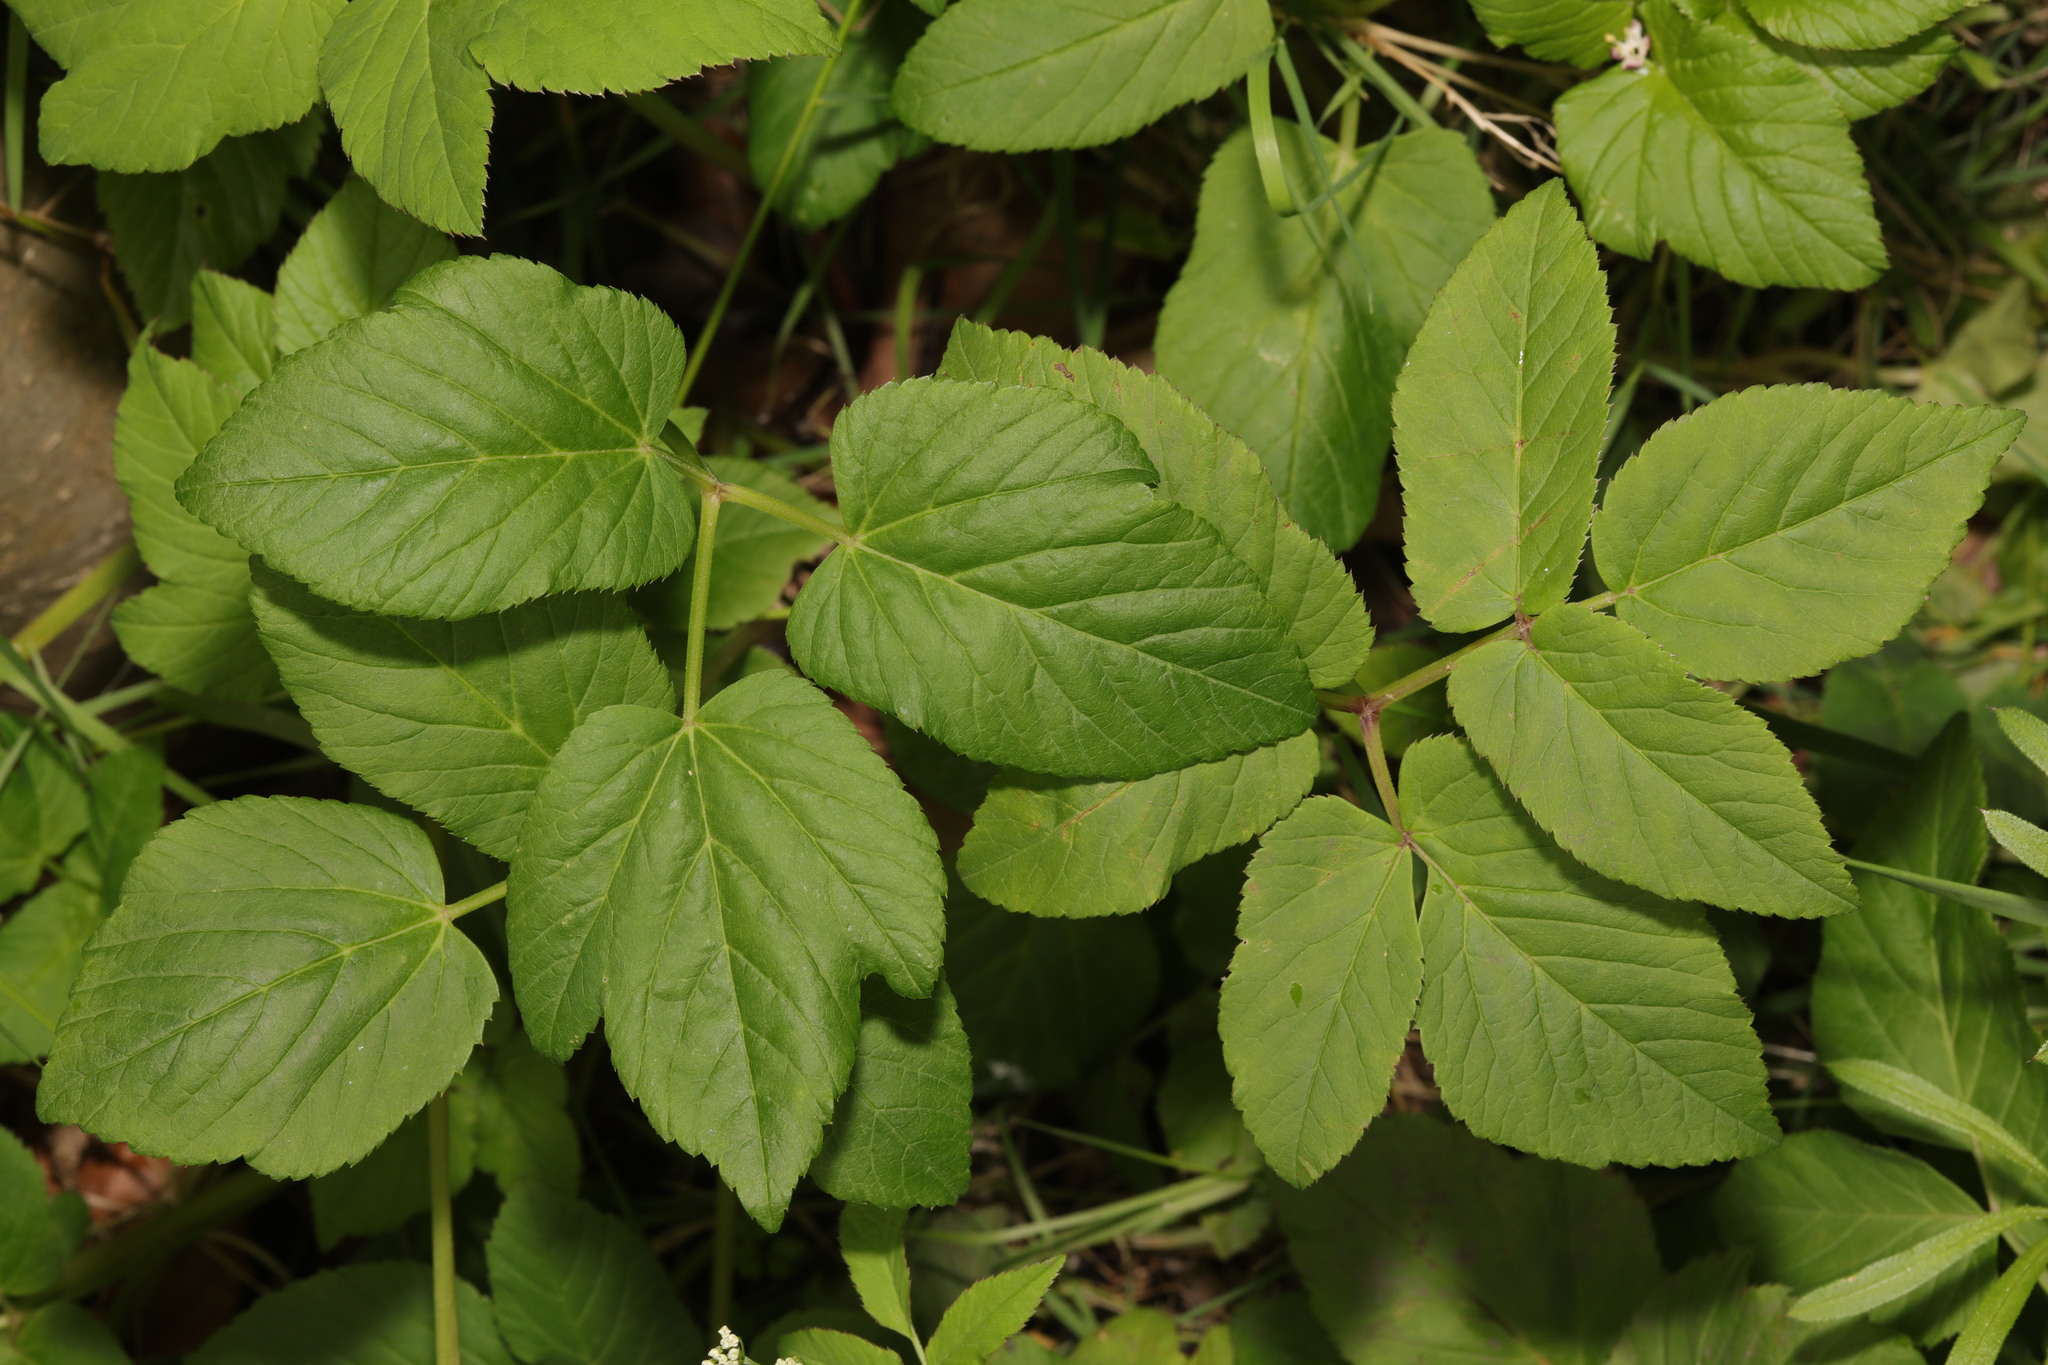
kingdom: Plantae
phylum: Tracheophyta
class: Magnoliopsida
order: Apiales
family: Apiaceae
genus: Aegopodium
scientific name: Aegopodium podagraria
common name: Ground-elder
